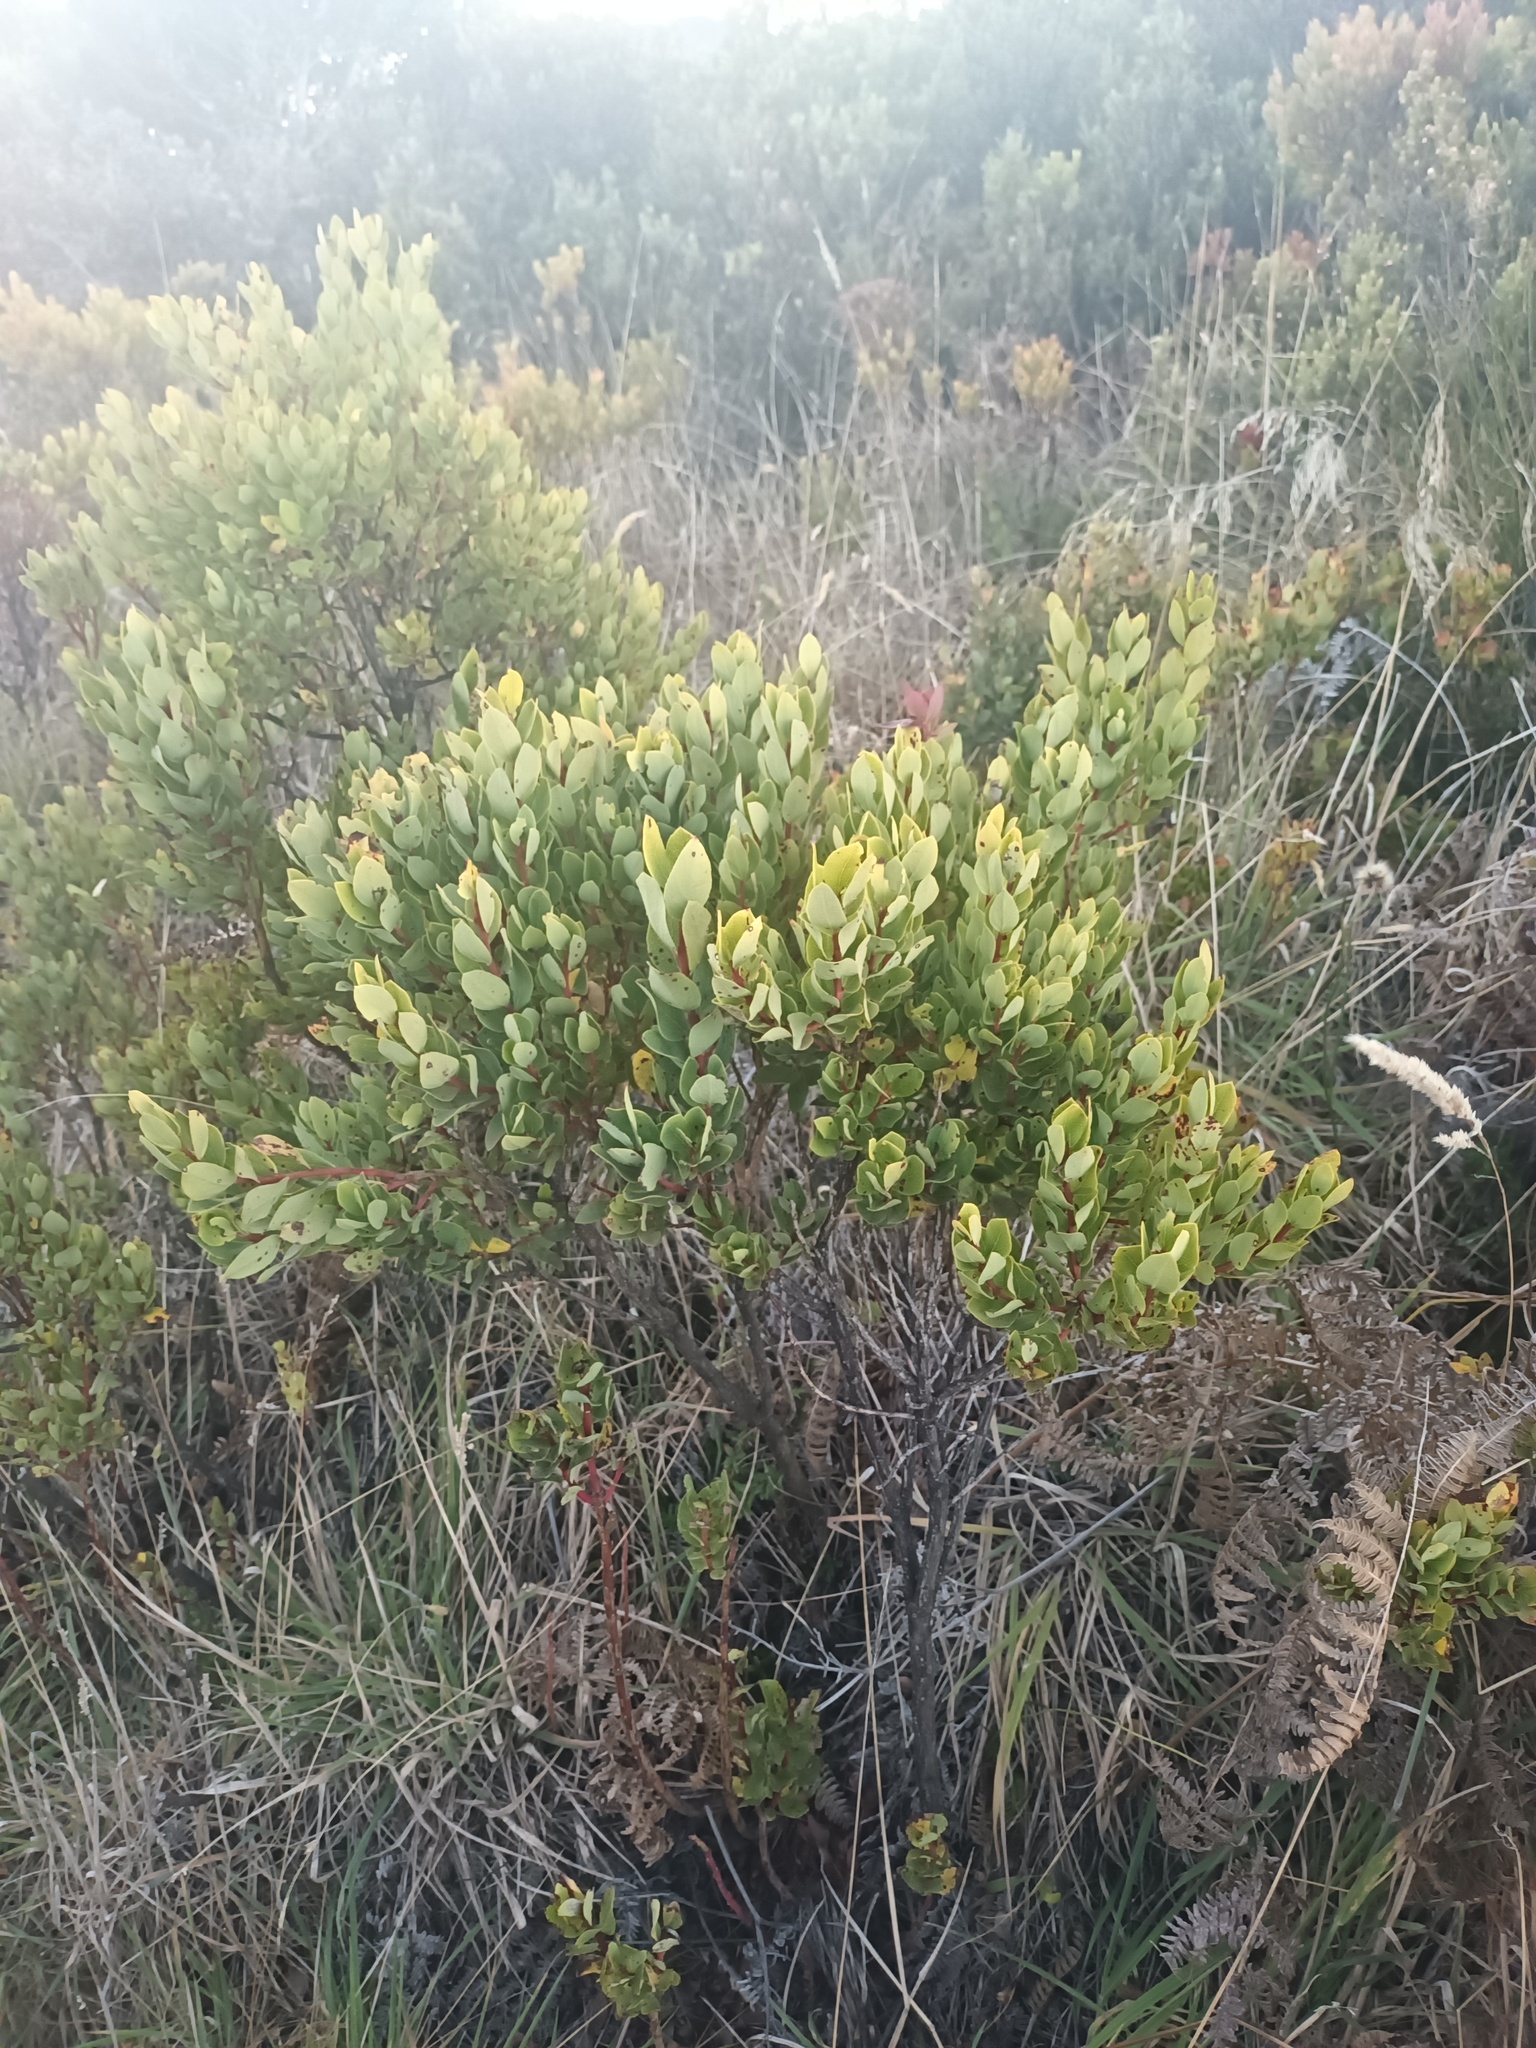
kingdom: Plantae
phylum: Tracheophyta
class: Magnoliopsida
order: Ericales
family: Ericaceae
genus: Vaccinium
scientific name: Vaccinium reticulatum
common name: Ohelo
